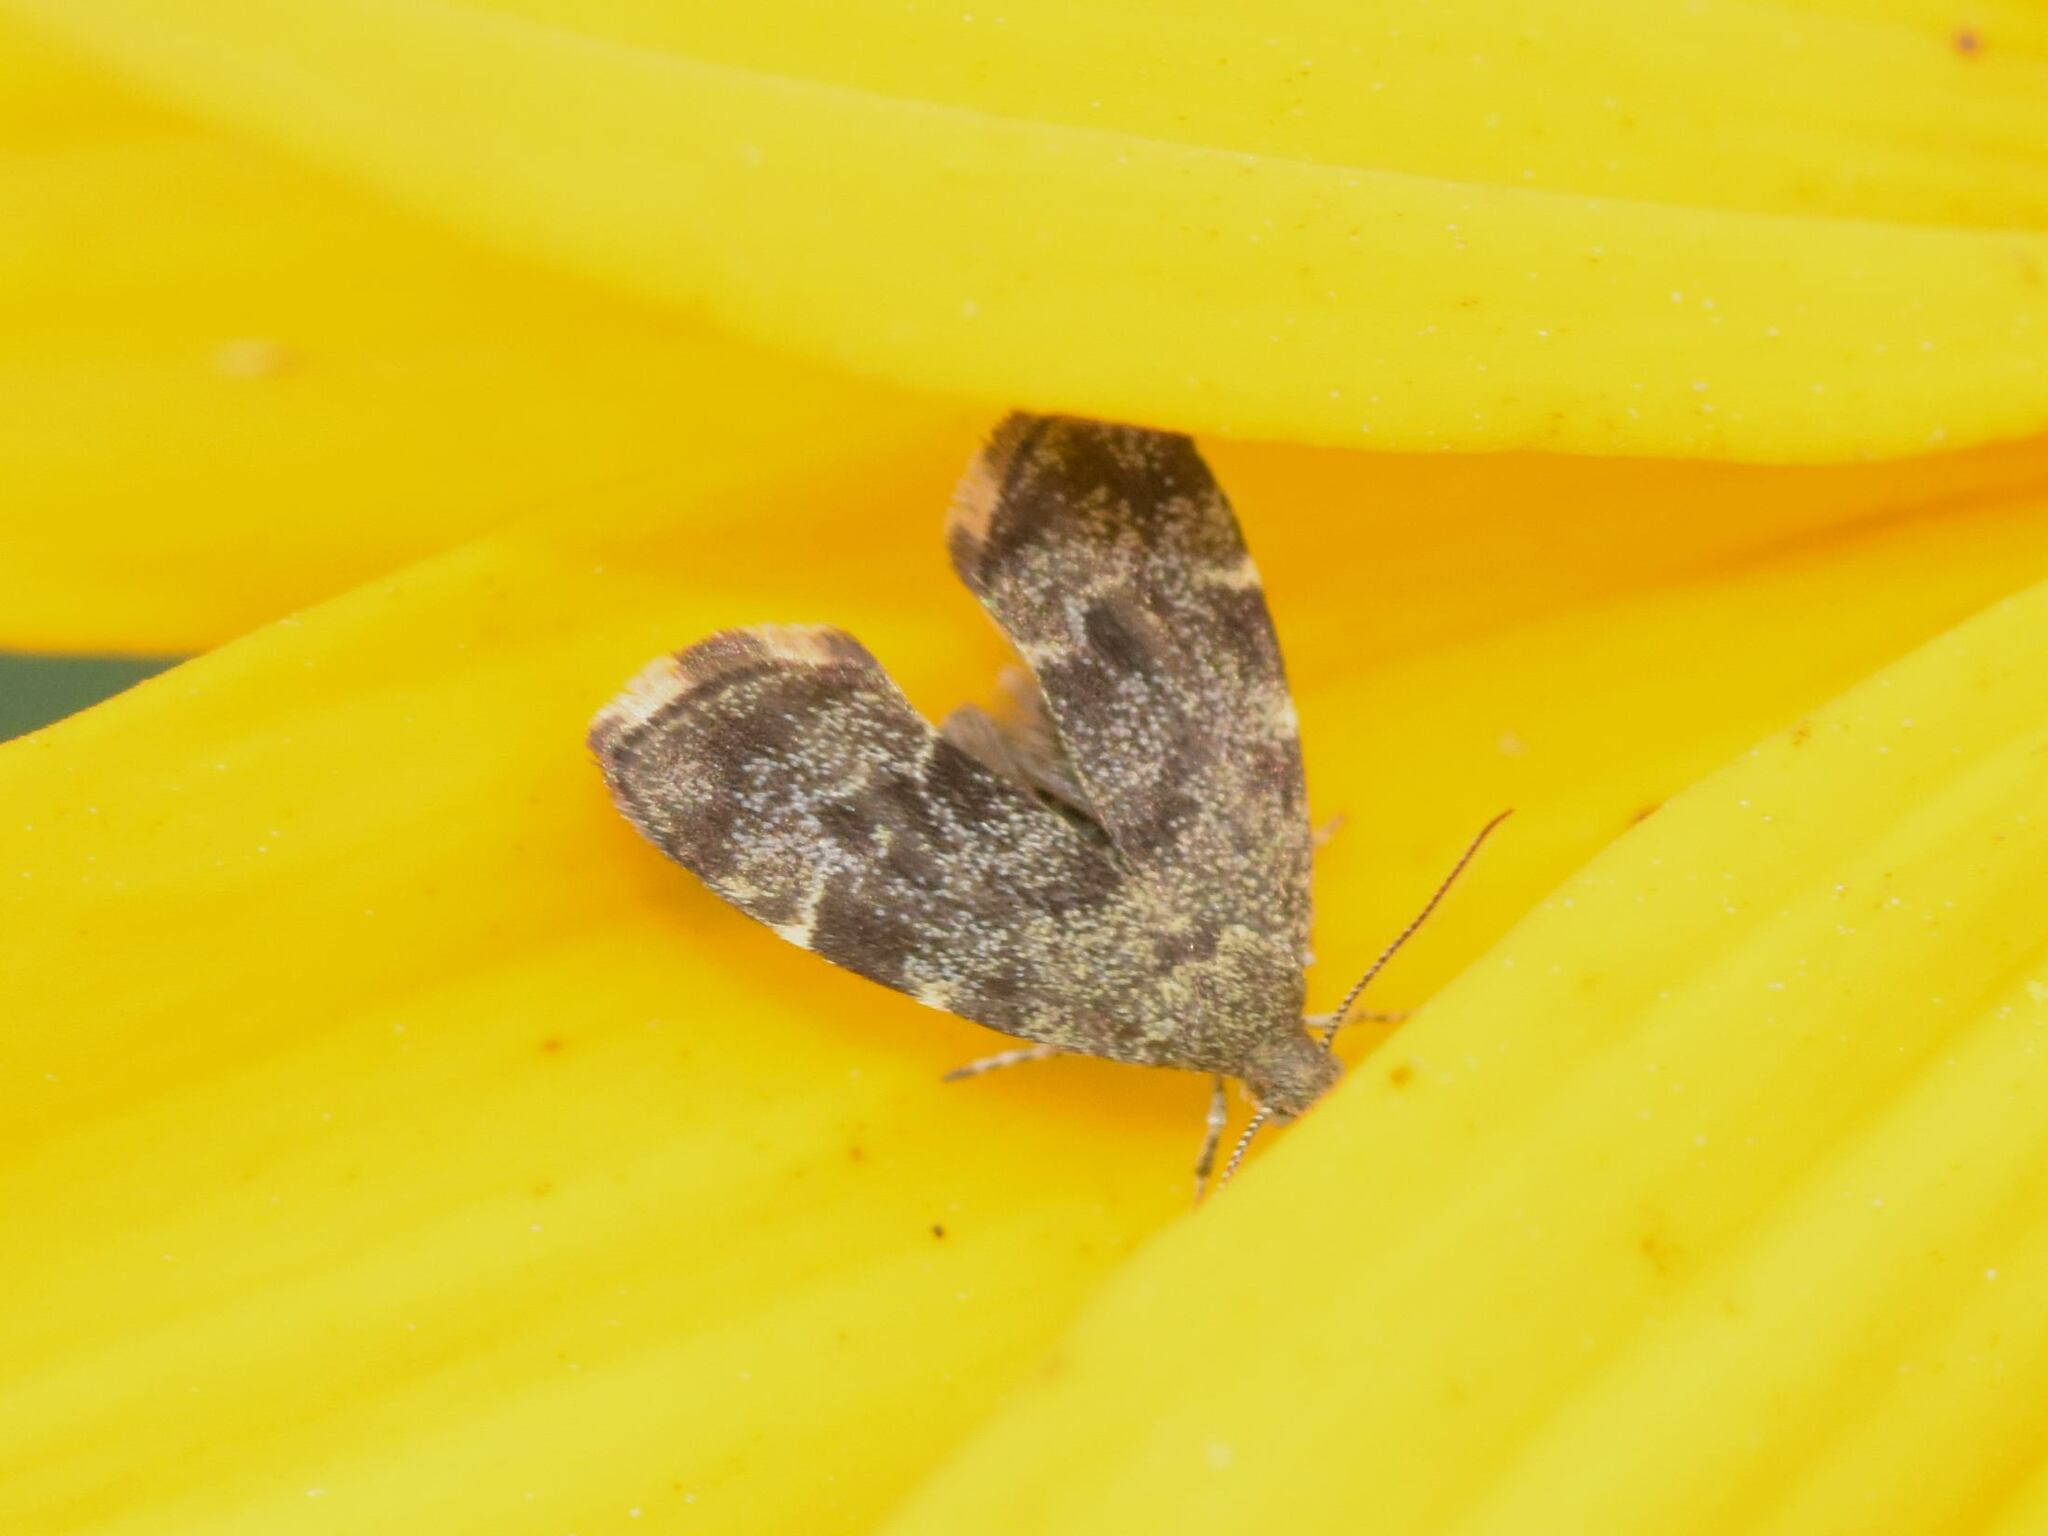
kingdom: Animalia
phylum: Arthropoda
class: Insecta
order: Lepidoptera
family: Choreutidae
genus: Anthophila
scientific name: Anthophila fabriciana
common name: Nettle-tap
